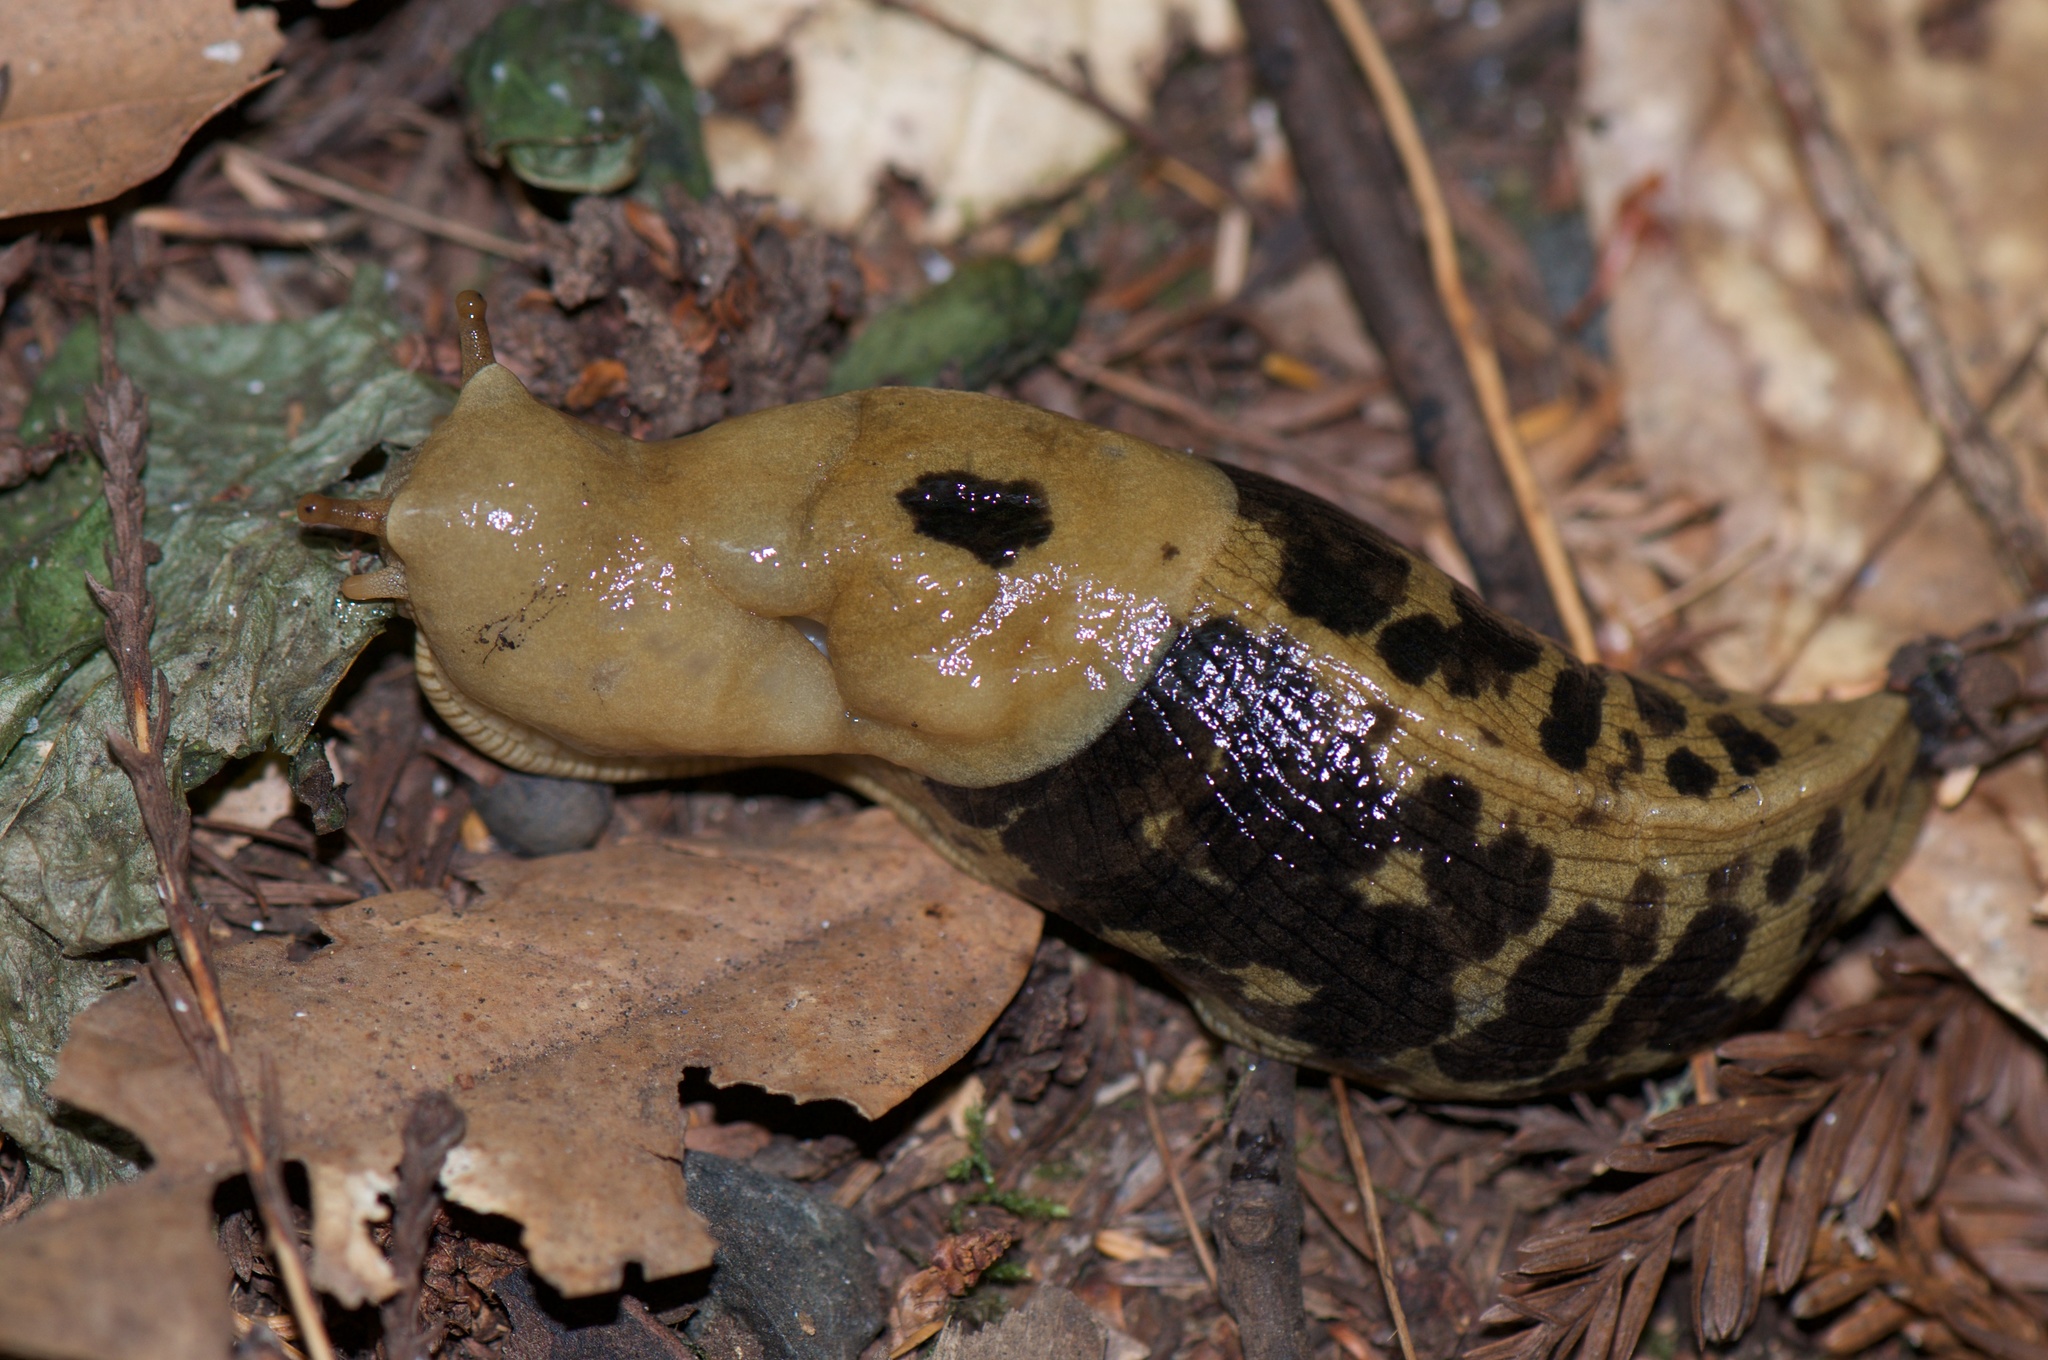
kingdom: Animalia
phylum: Mollusca
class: Gastropoda
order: Stylommatophora
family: Ariolimacidae
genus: Ariolimax
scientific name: Ariolimax columbianus
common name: Pacific banana slug
